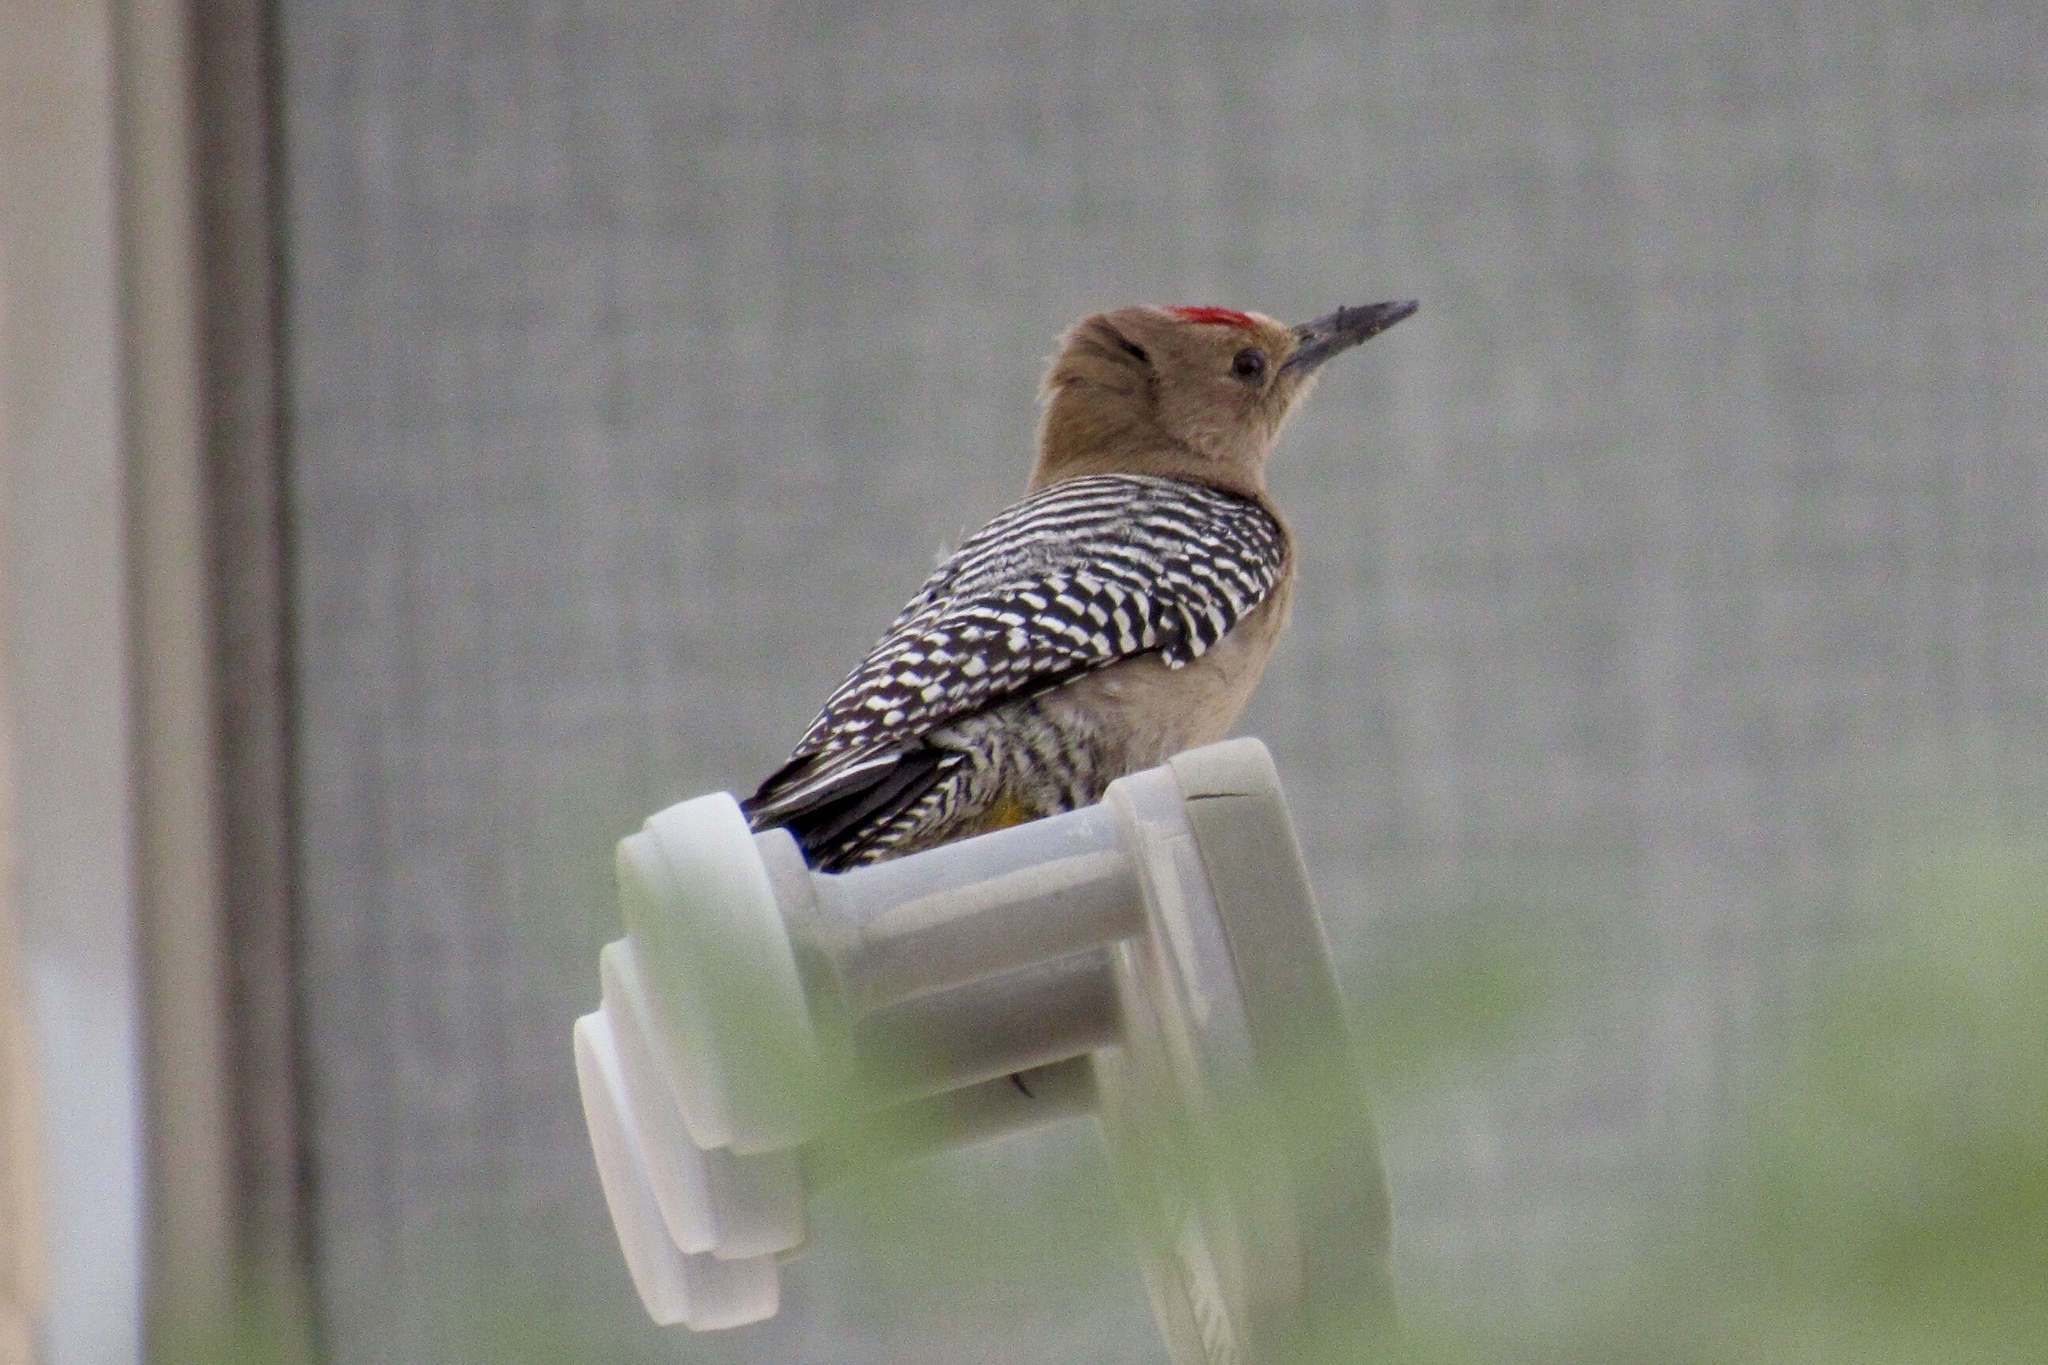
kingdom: Animalia
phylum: Chordata
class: Aves
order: Piciformes
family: Picidae
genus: Melanerpes
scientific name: Melanerpes uropygialis
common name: Gila woodpecker
